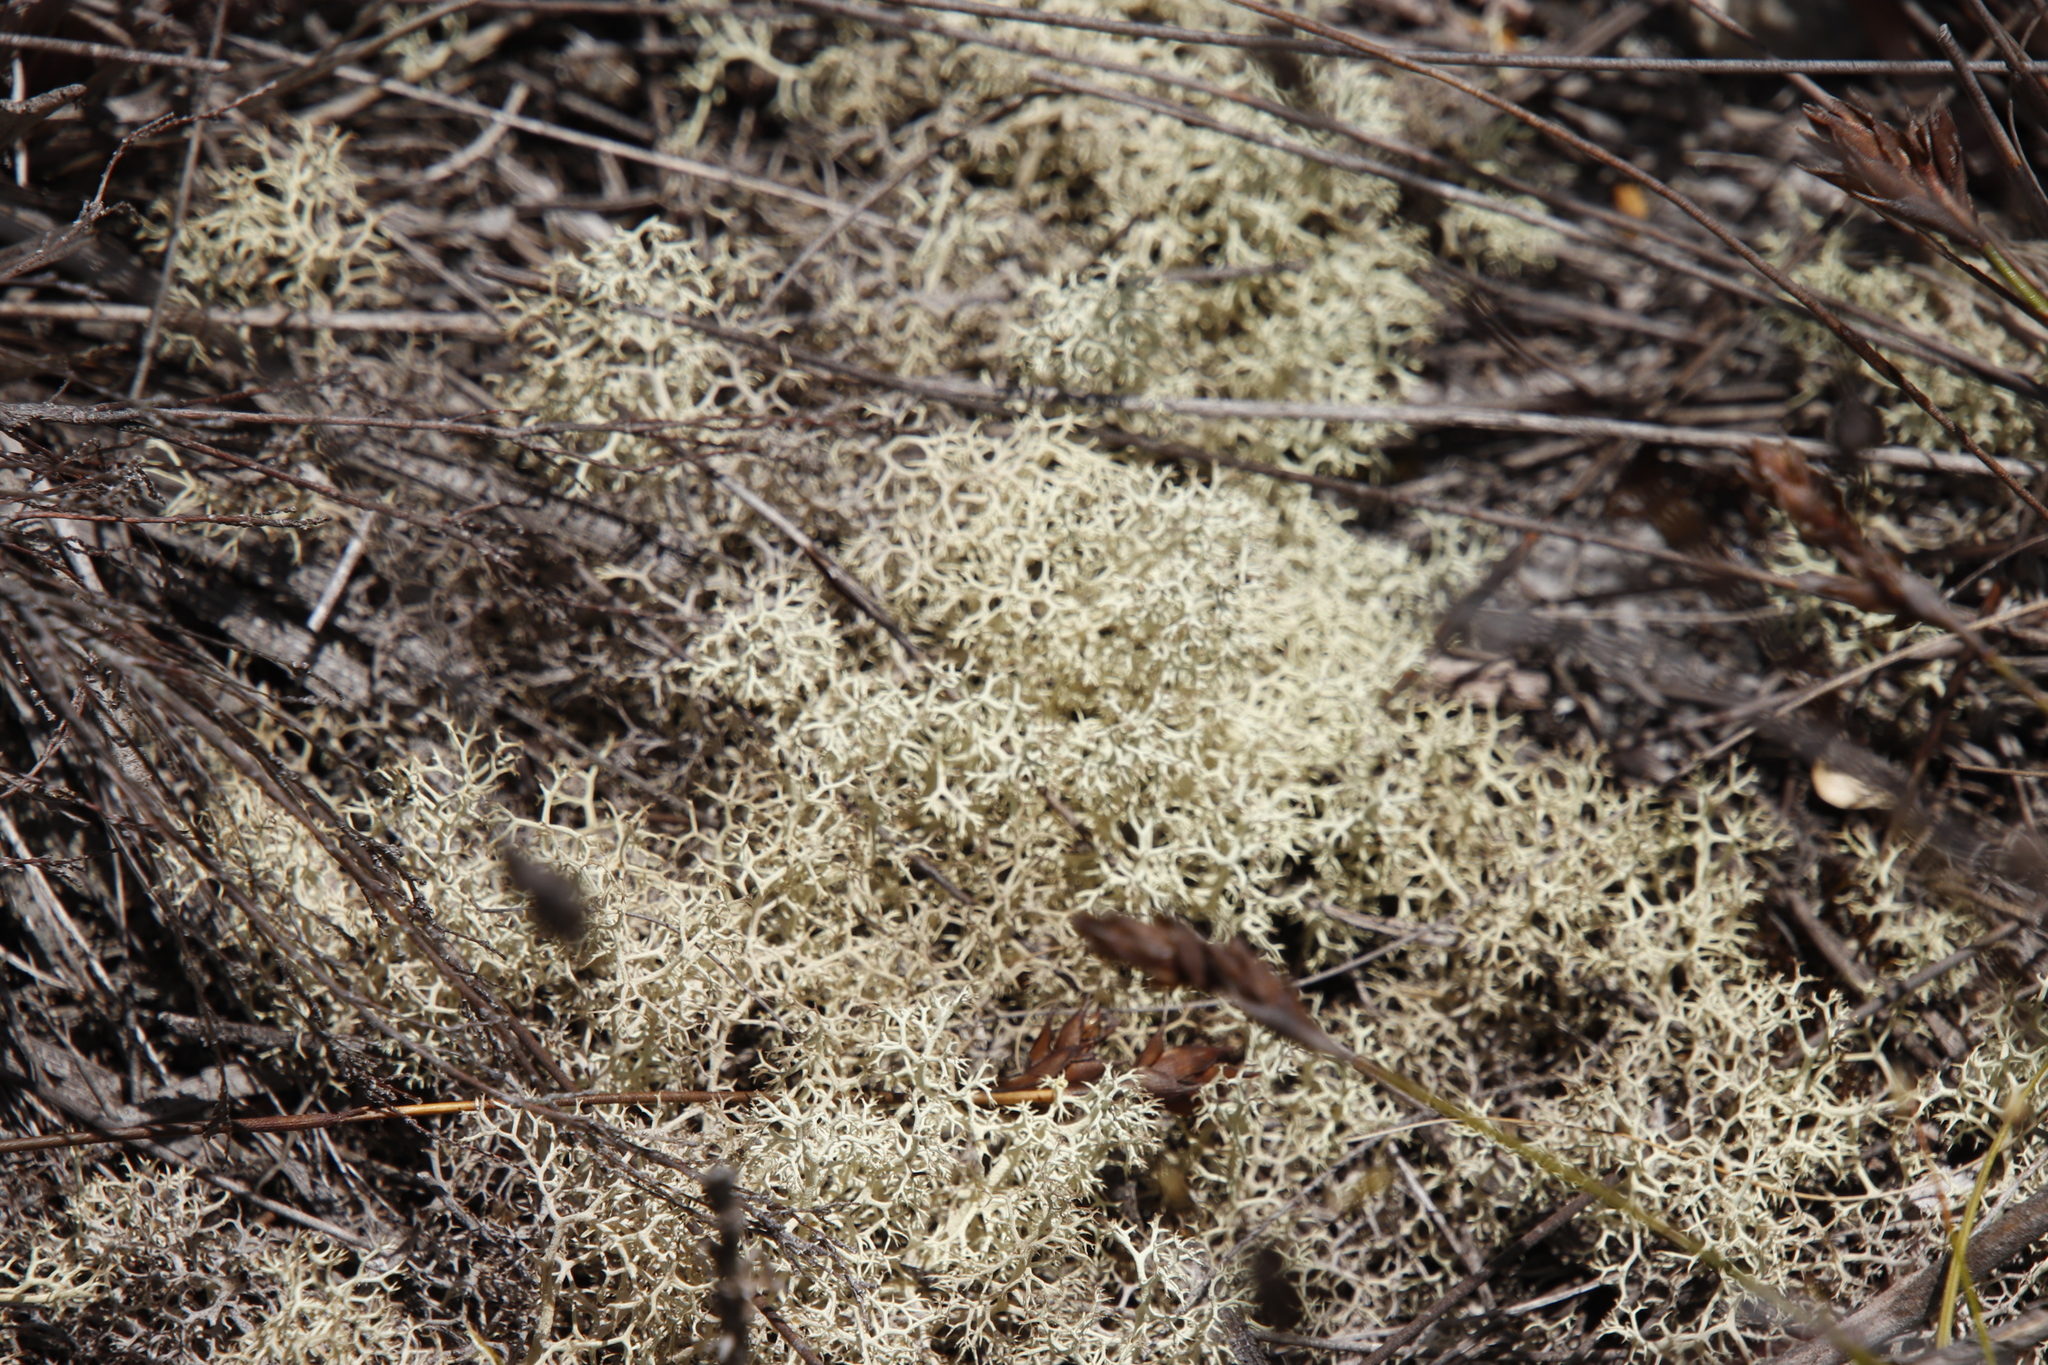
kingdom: Fungi
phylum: Ascomycota
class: Lecanoromycetes
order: Lecanorales
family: Cladoniaceae
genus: Cladonia
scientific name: Cladonia confusa
